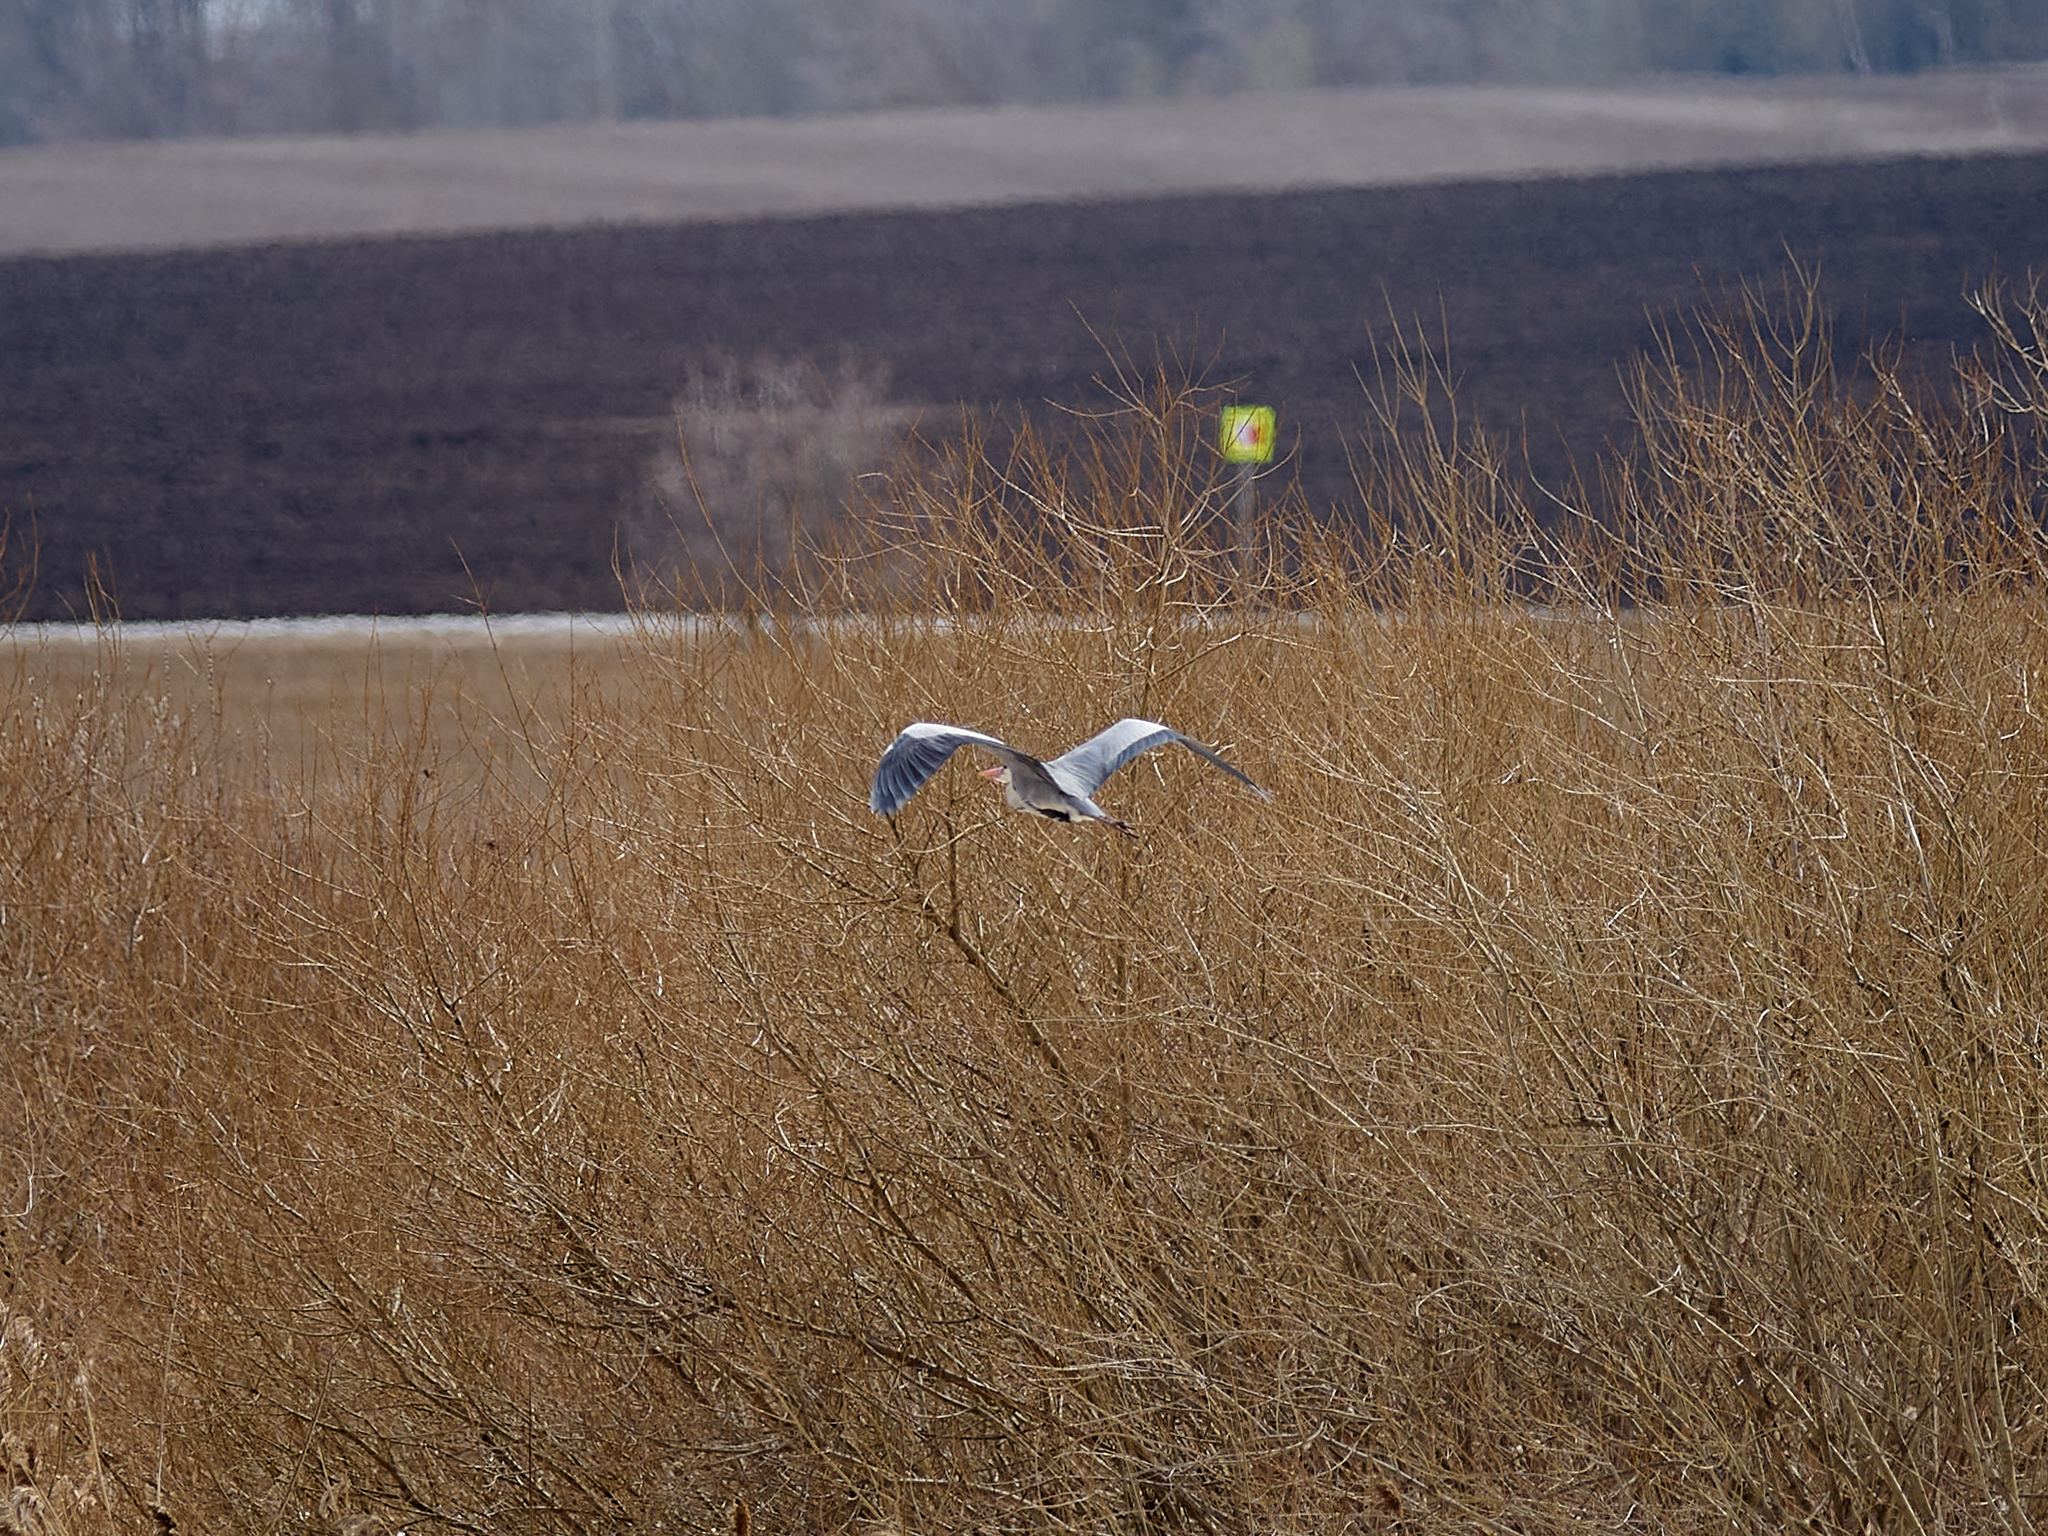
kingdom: Animalia
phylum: Chordata
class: Aves
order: Pelecaniformes
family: Ardeidae
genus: Ardea
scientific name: Ardea cinerea
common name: Grey heron
